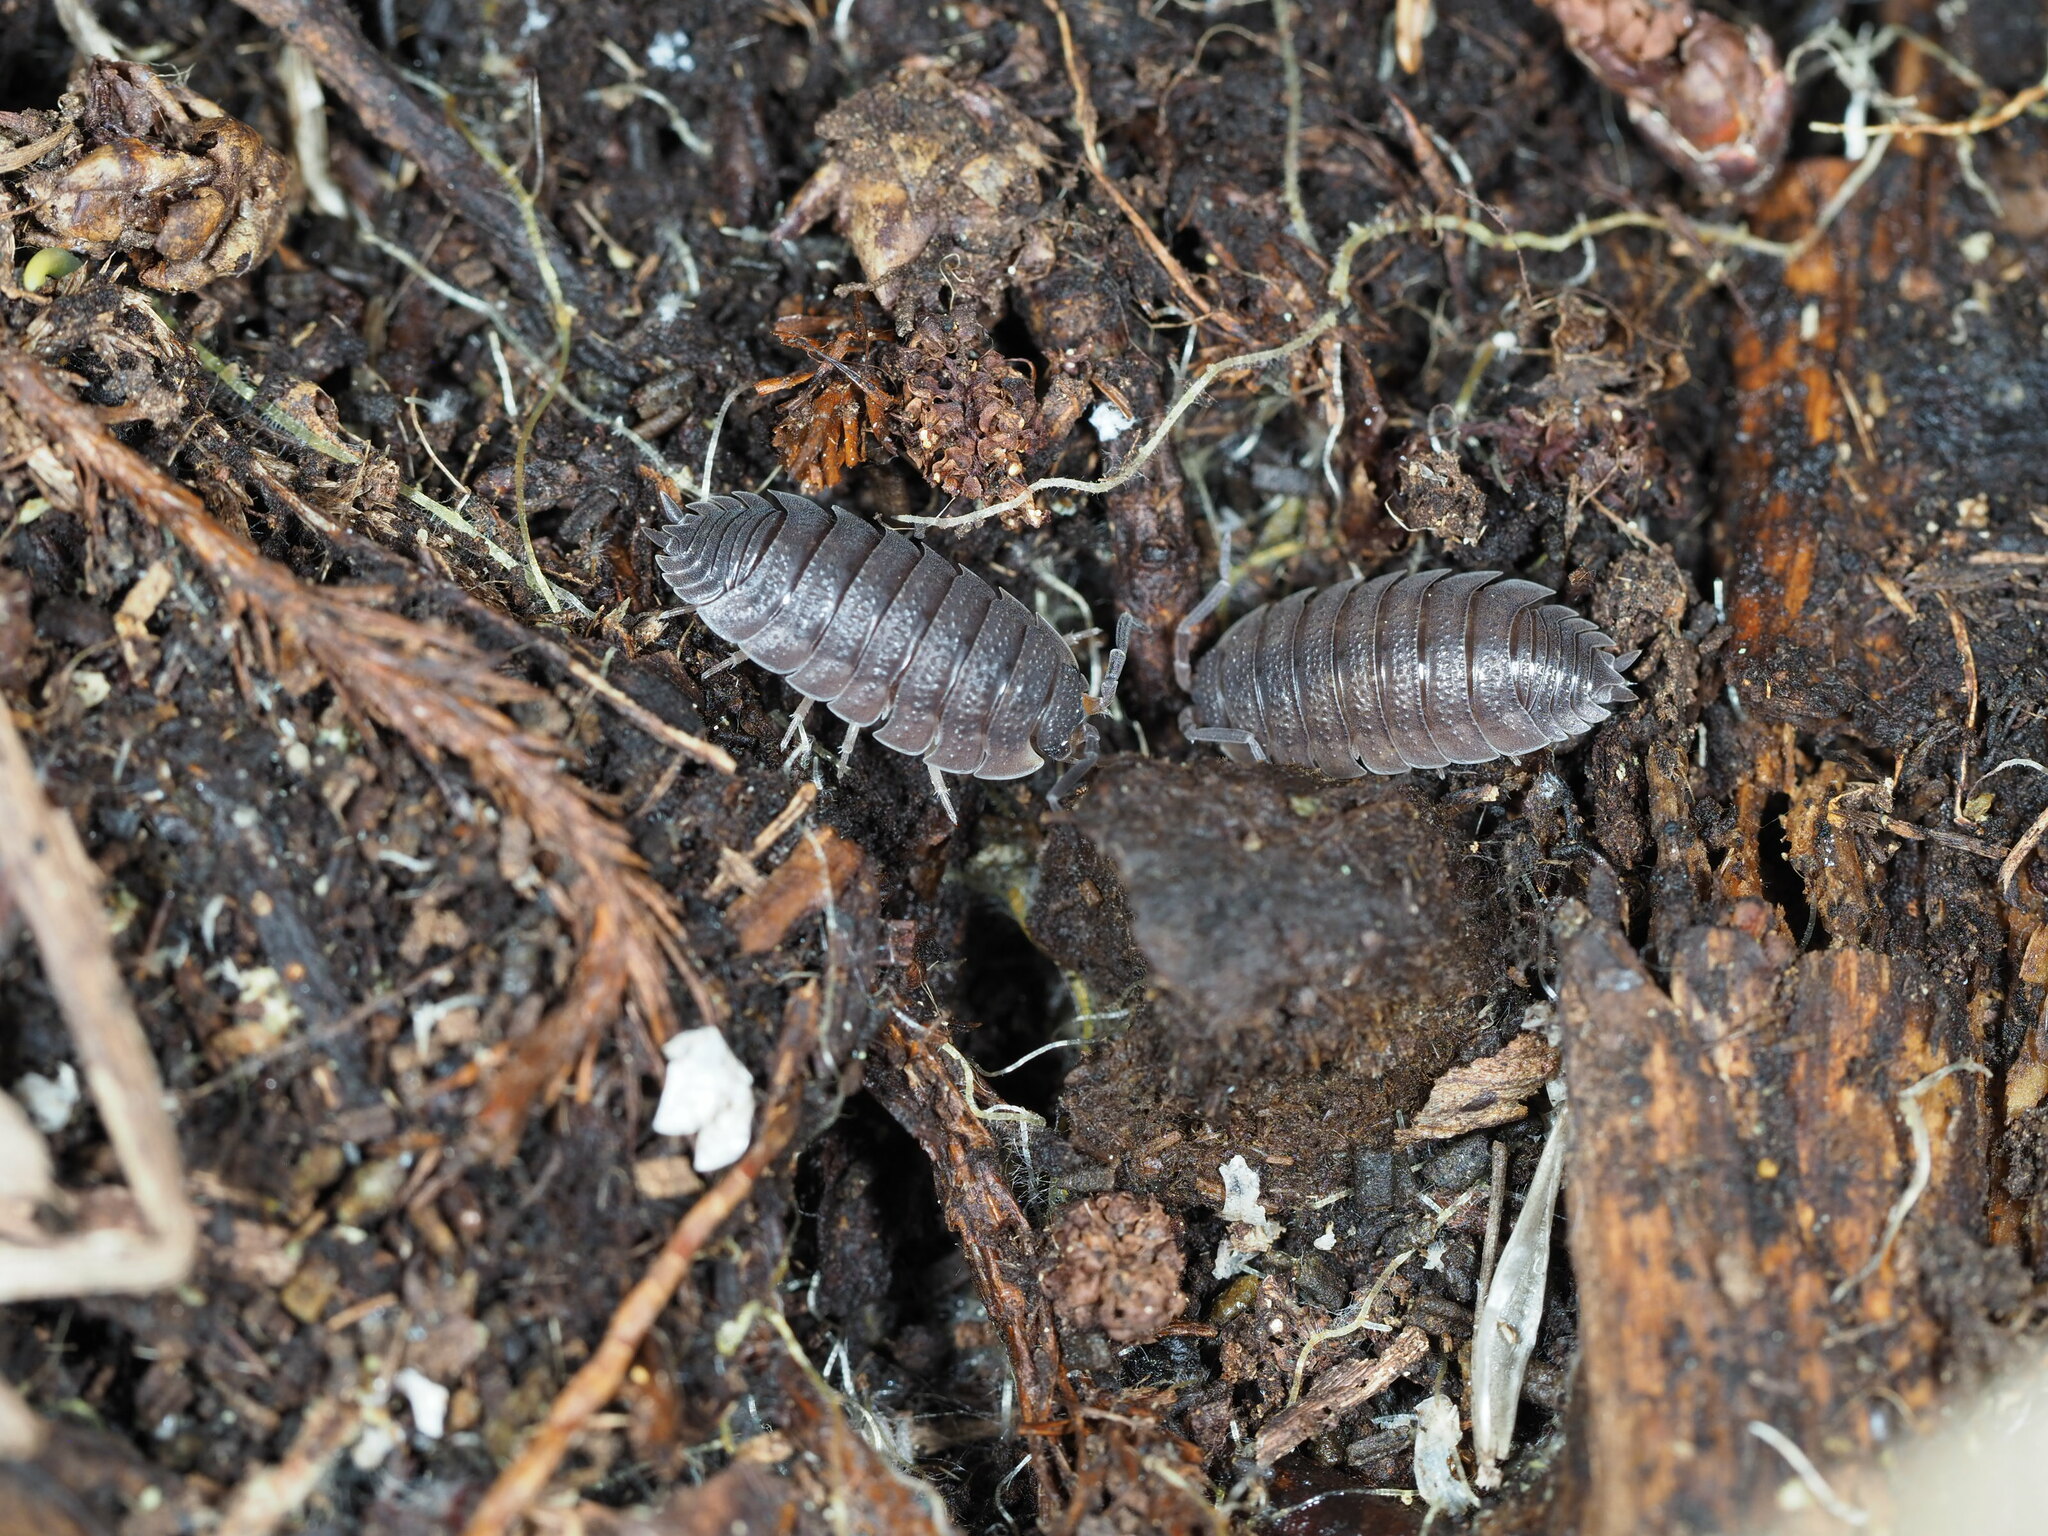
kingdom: Animalia
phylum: Arthropoda
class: Malacostraca
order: Isopoda
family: Porcellionidae
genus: Porcellio
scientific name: Porcellio scaber
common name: Common rough woodlouse
